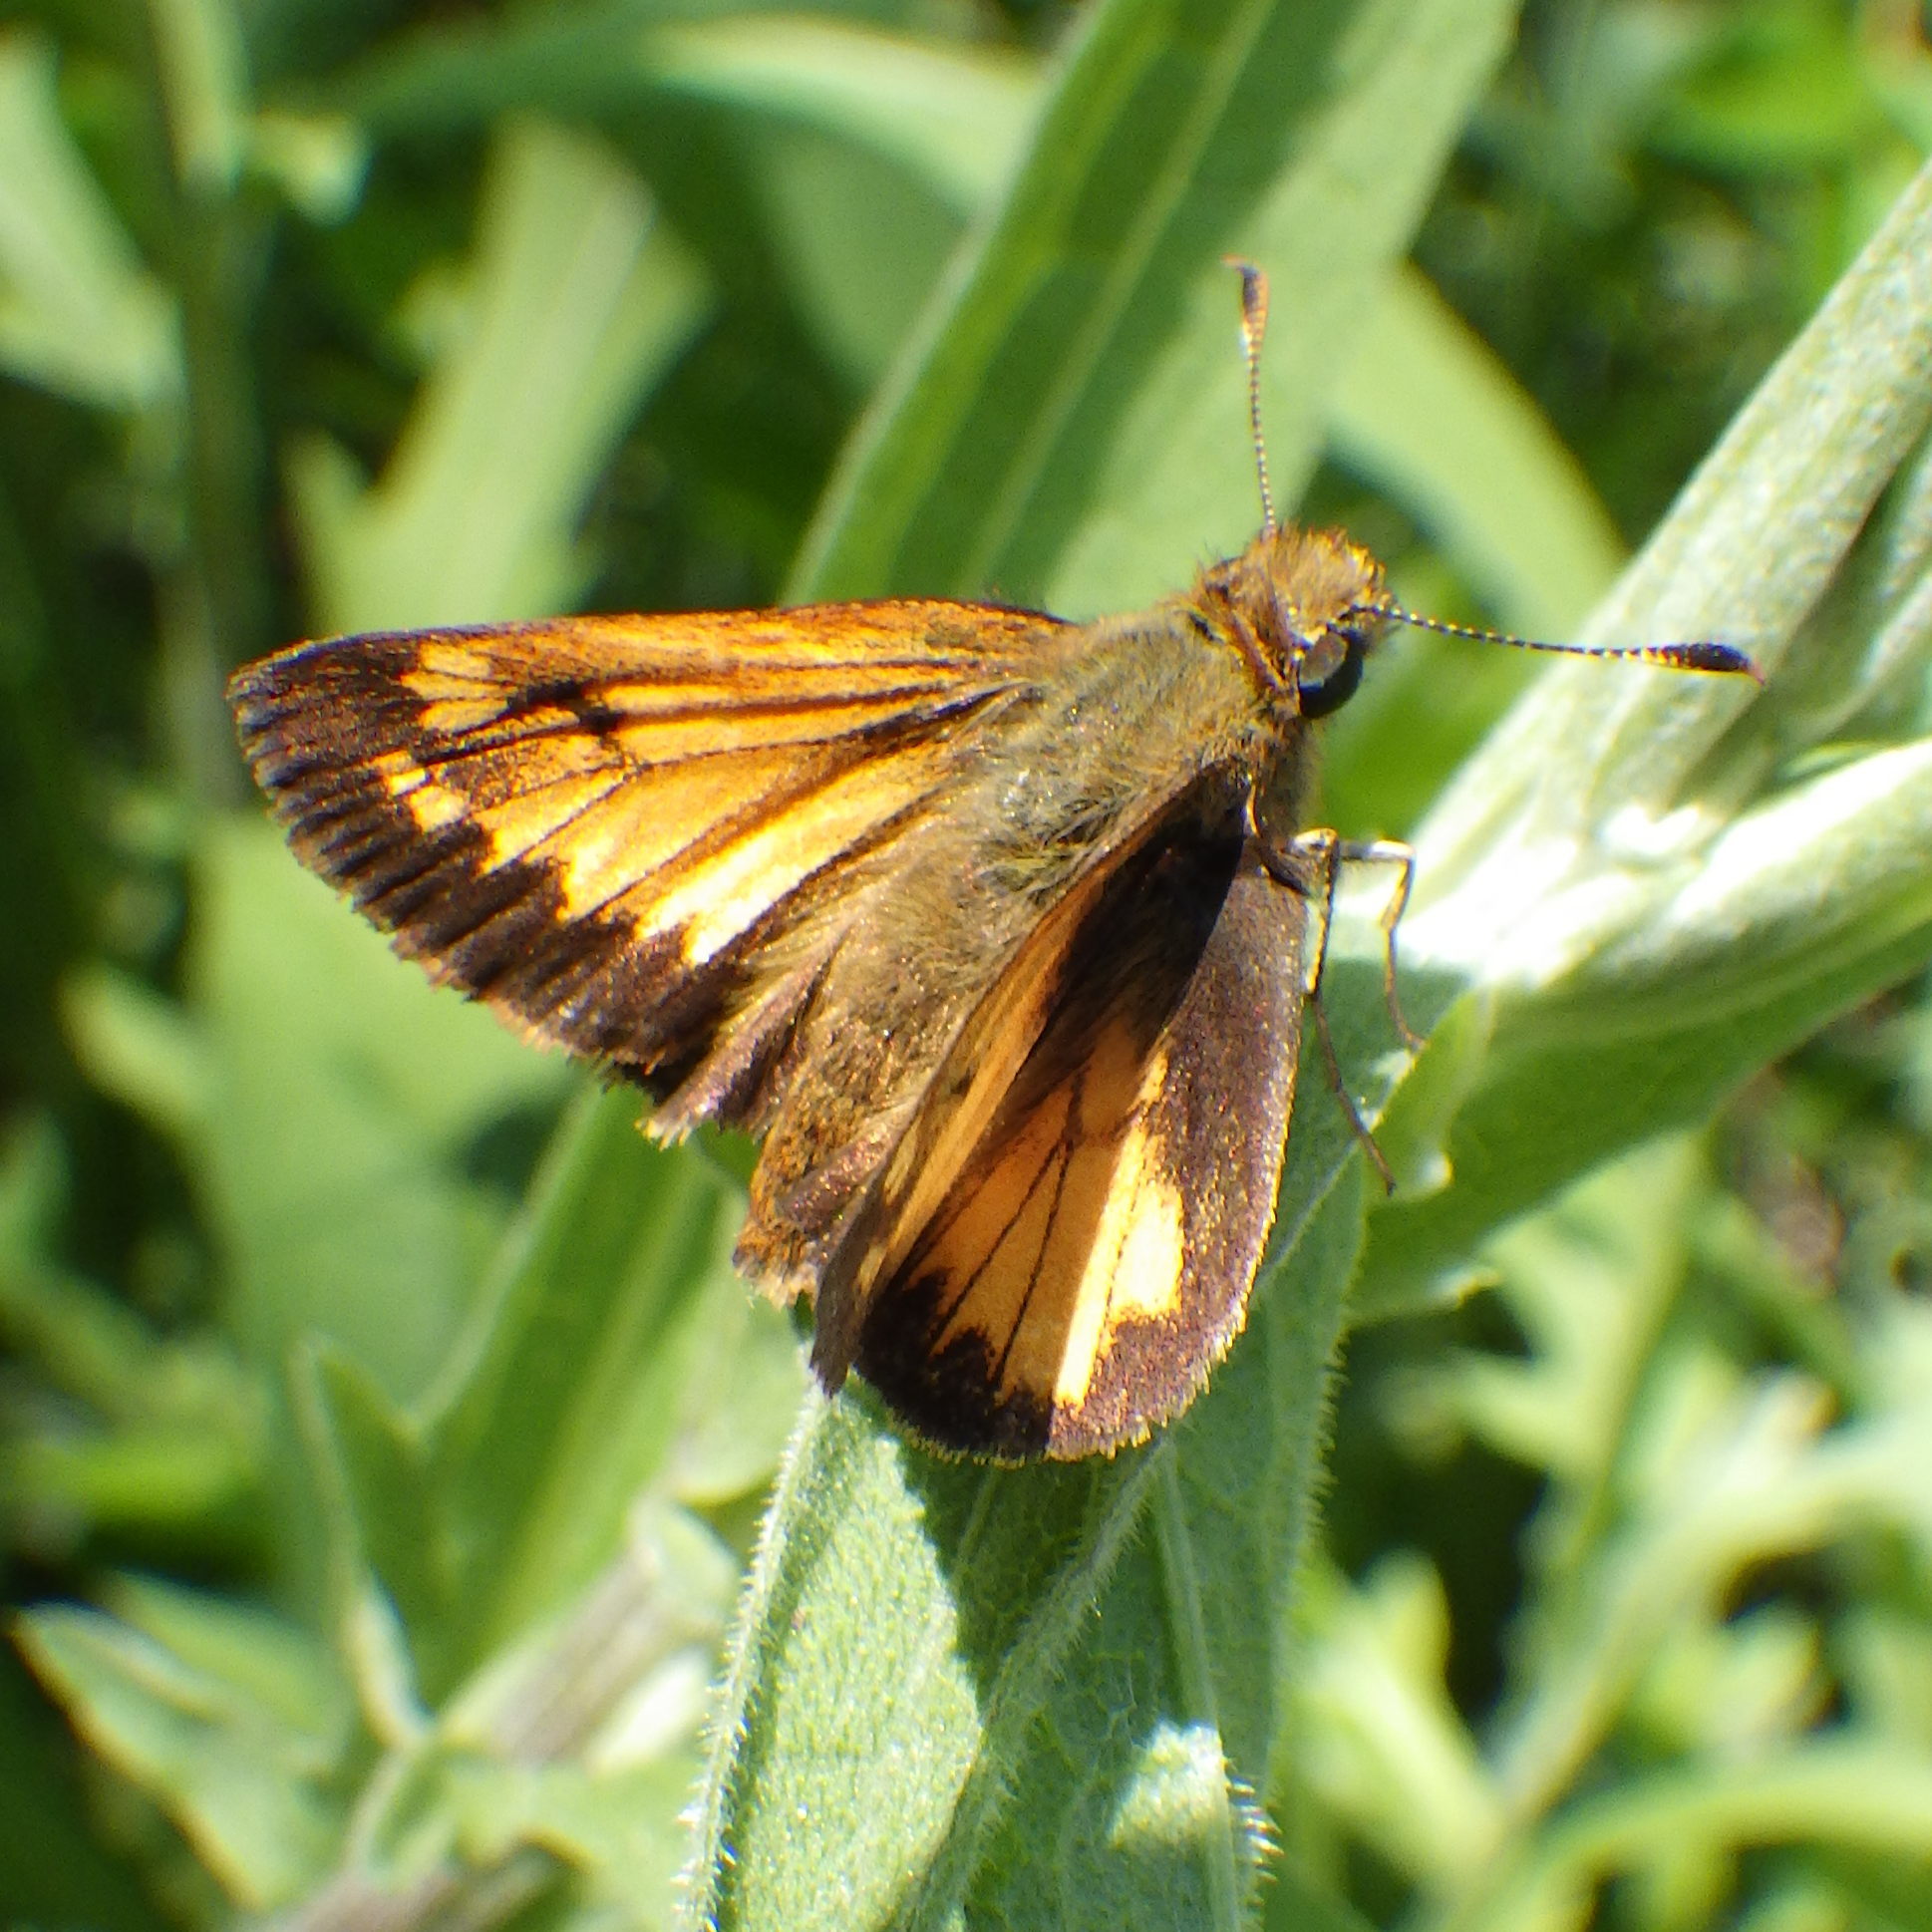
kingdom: Animalia
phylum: Arthropoda
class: Insecta
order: Lepidoptera
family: Hesperiidae
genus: Lon
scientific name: Lon hobomok
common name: Hobomok skipper
